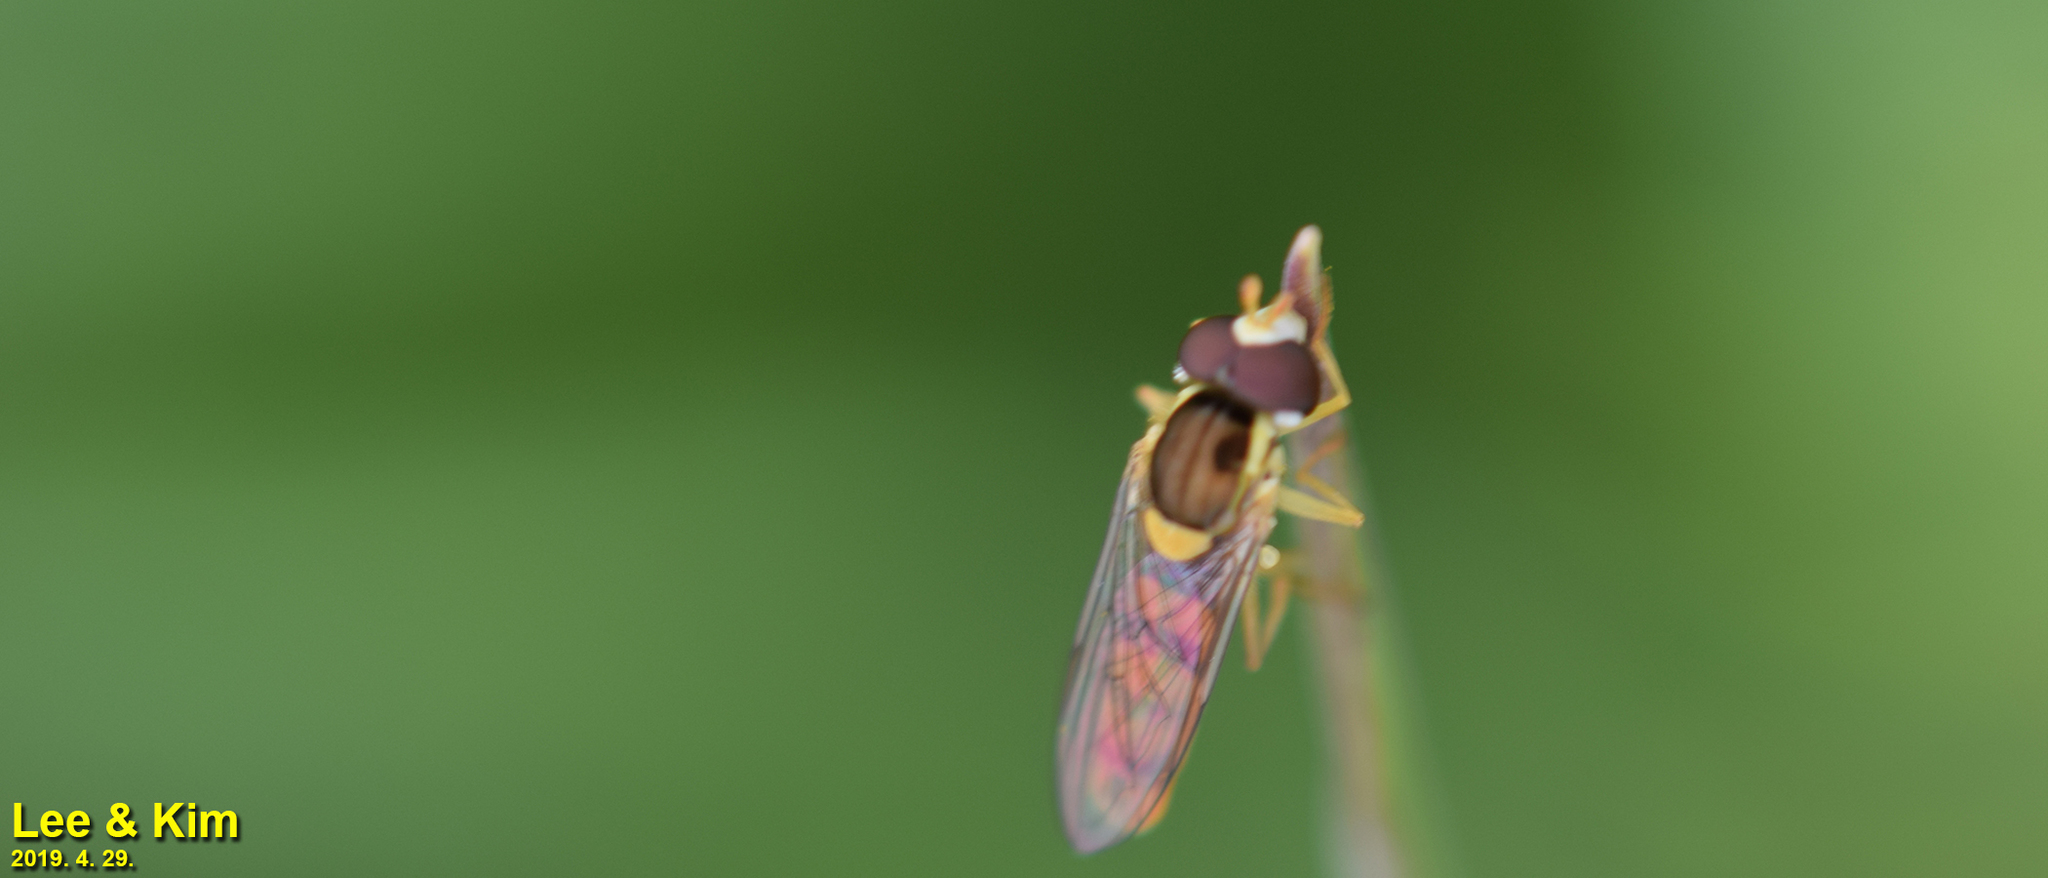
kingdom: Animalia
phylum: Arthropoda
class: Insecta
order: Diptera
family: Syrphidae
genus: Sphaerophoria
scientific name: Sphaerophoria scripta
